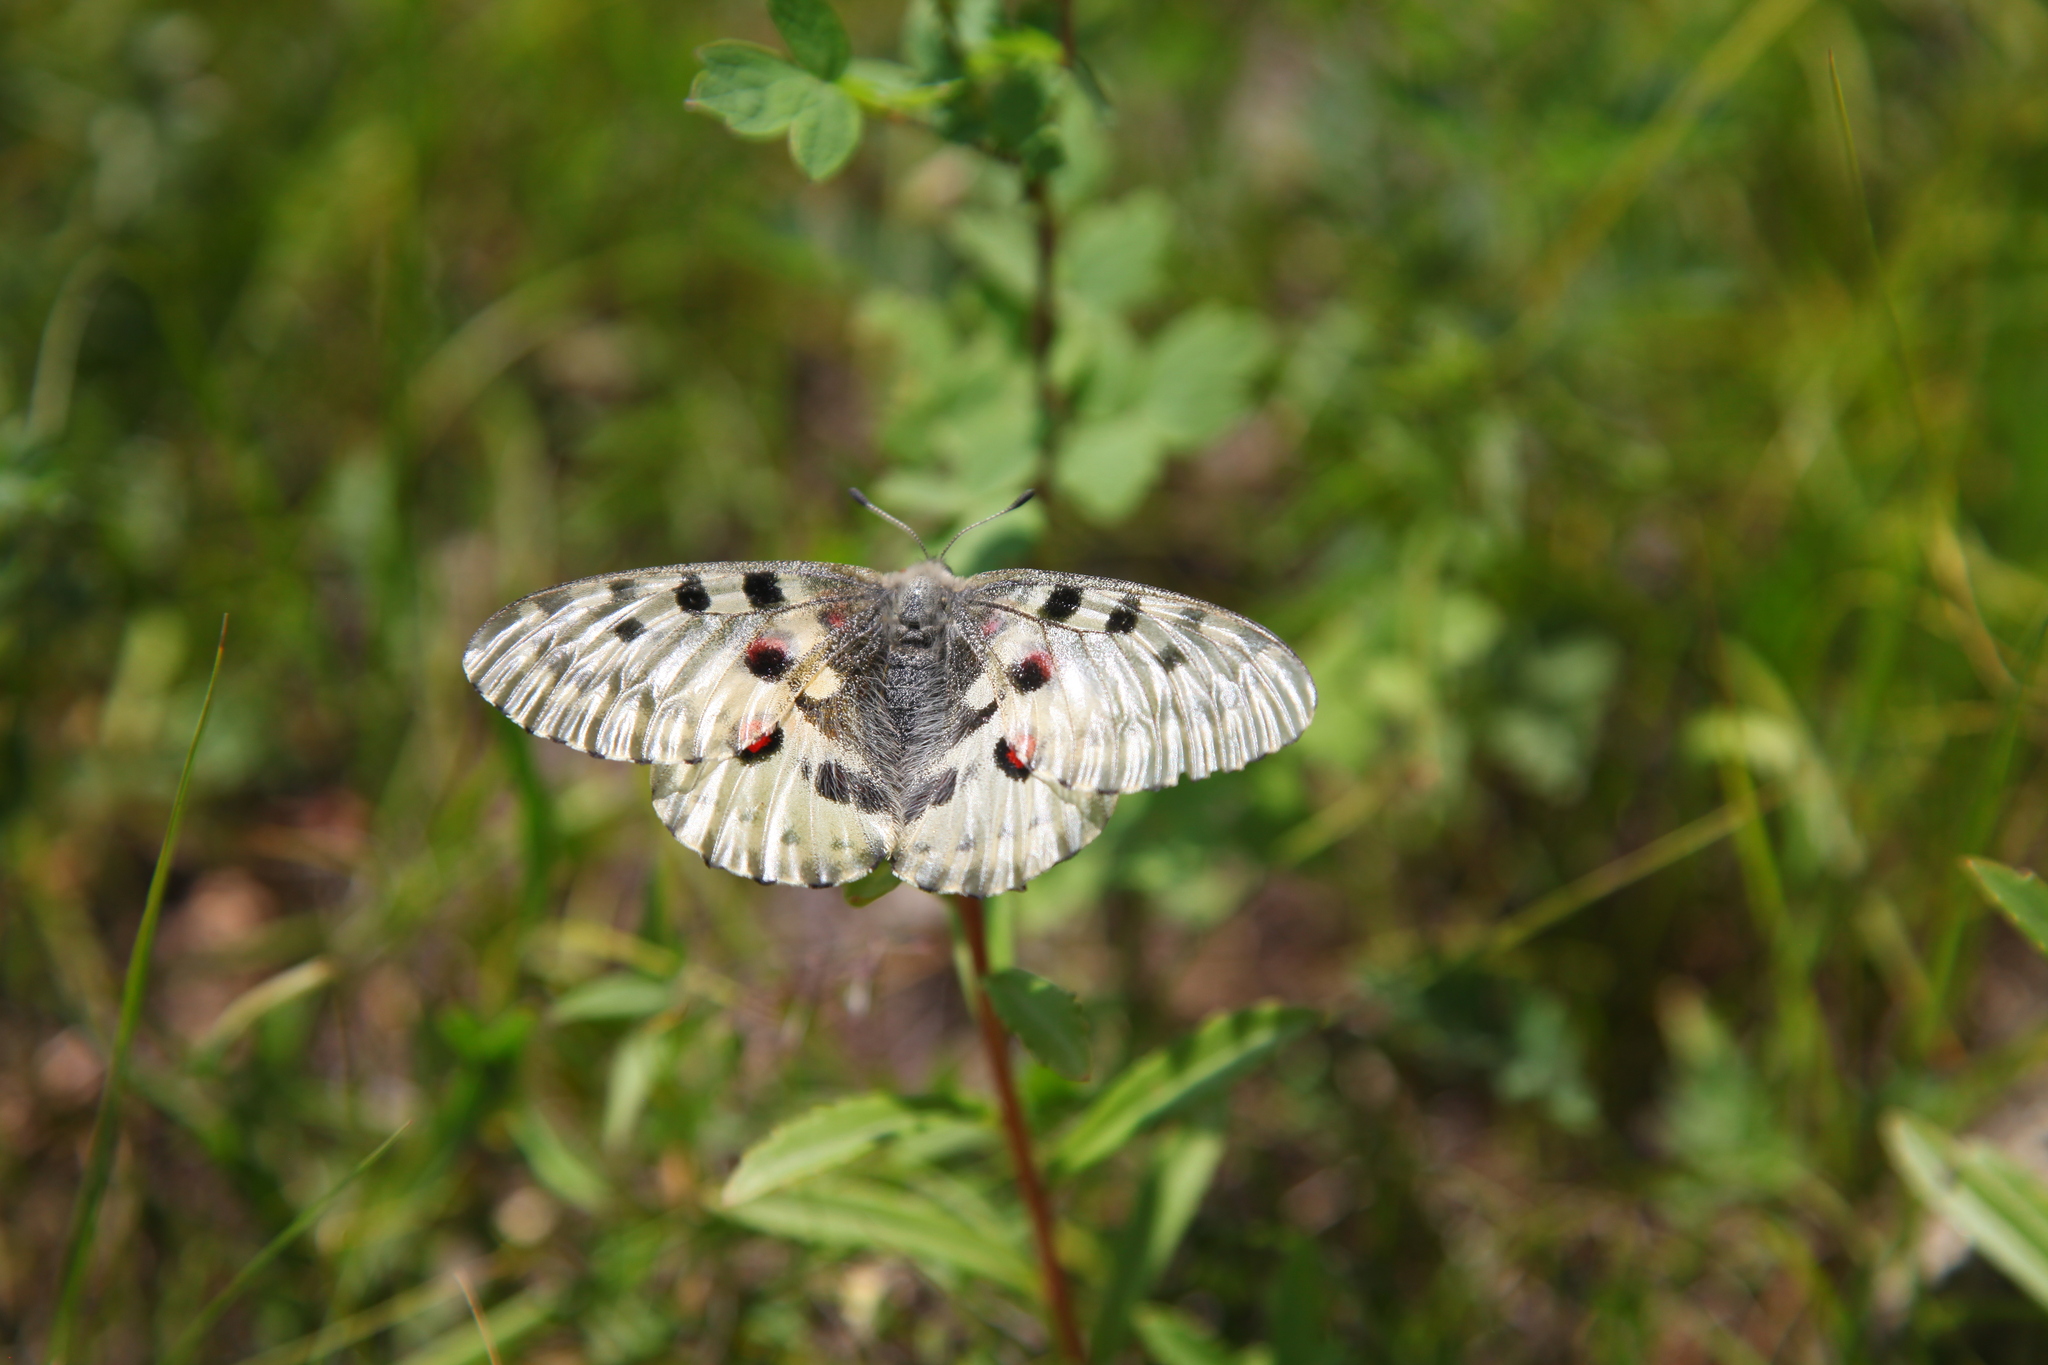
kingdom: Animalia
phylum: Arthropoda
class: Insecta
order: Lepidoptera
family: Papilionidae
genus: Parnassius
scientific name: Parnassius nomion
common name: Nomion apollo
